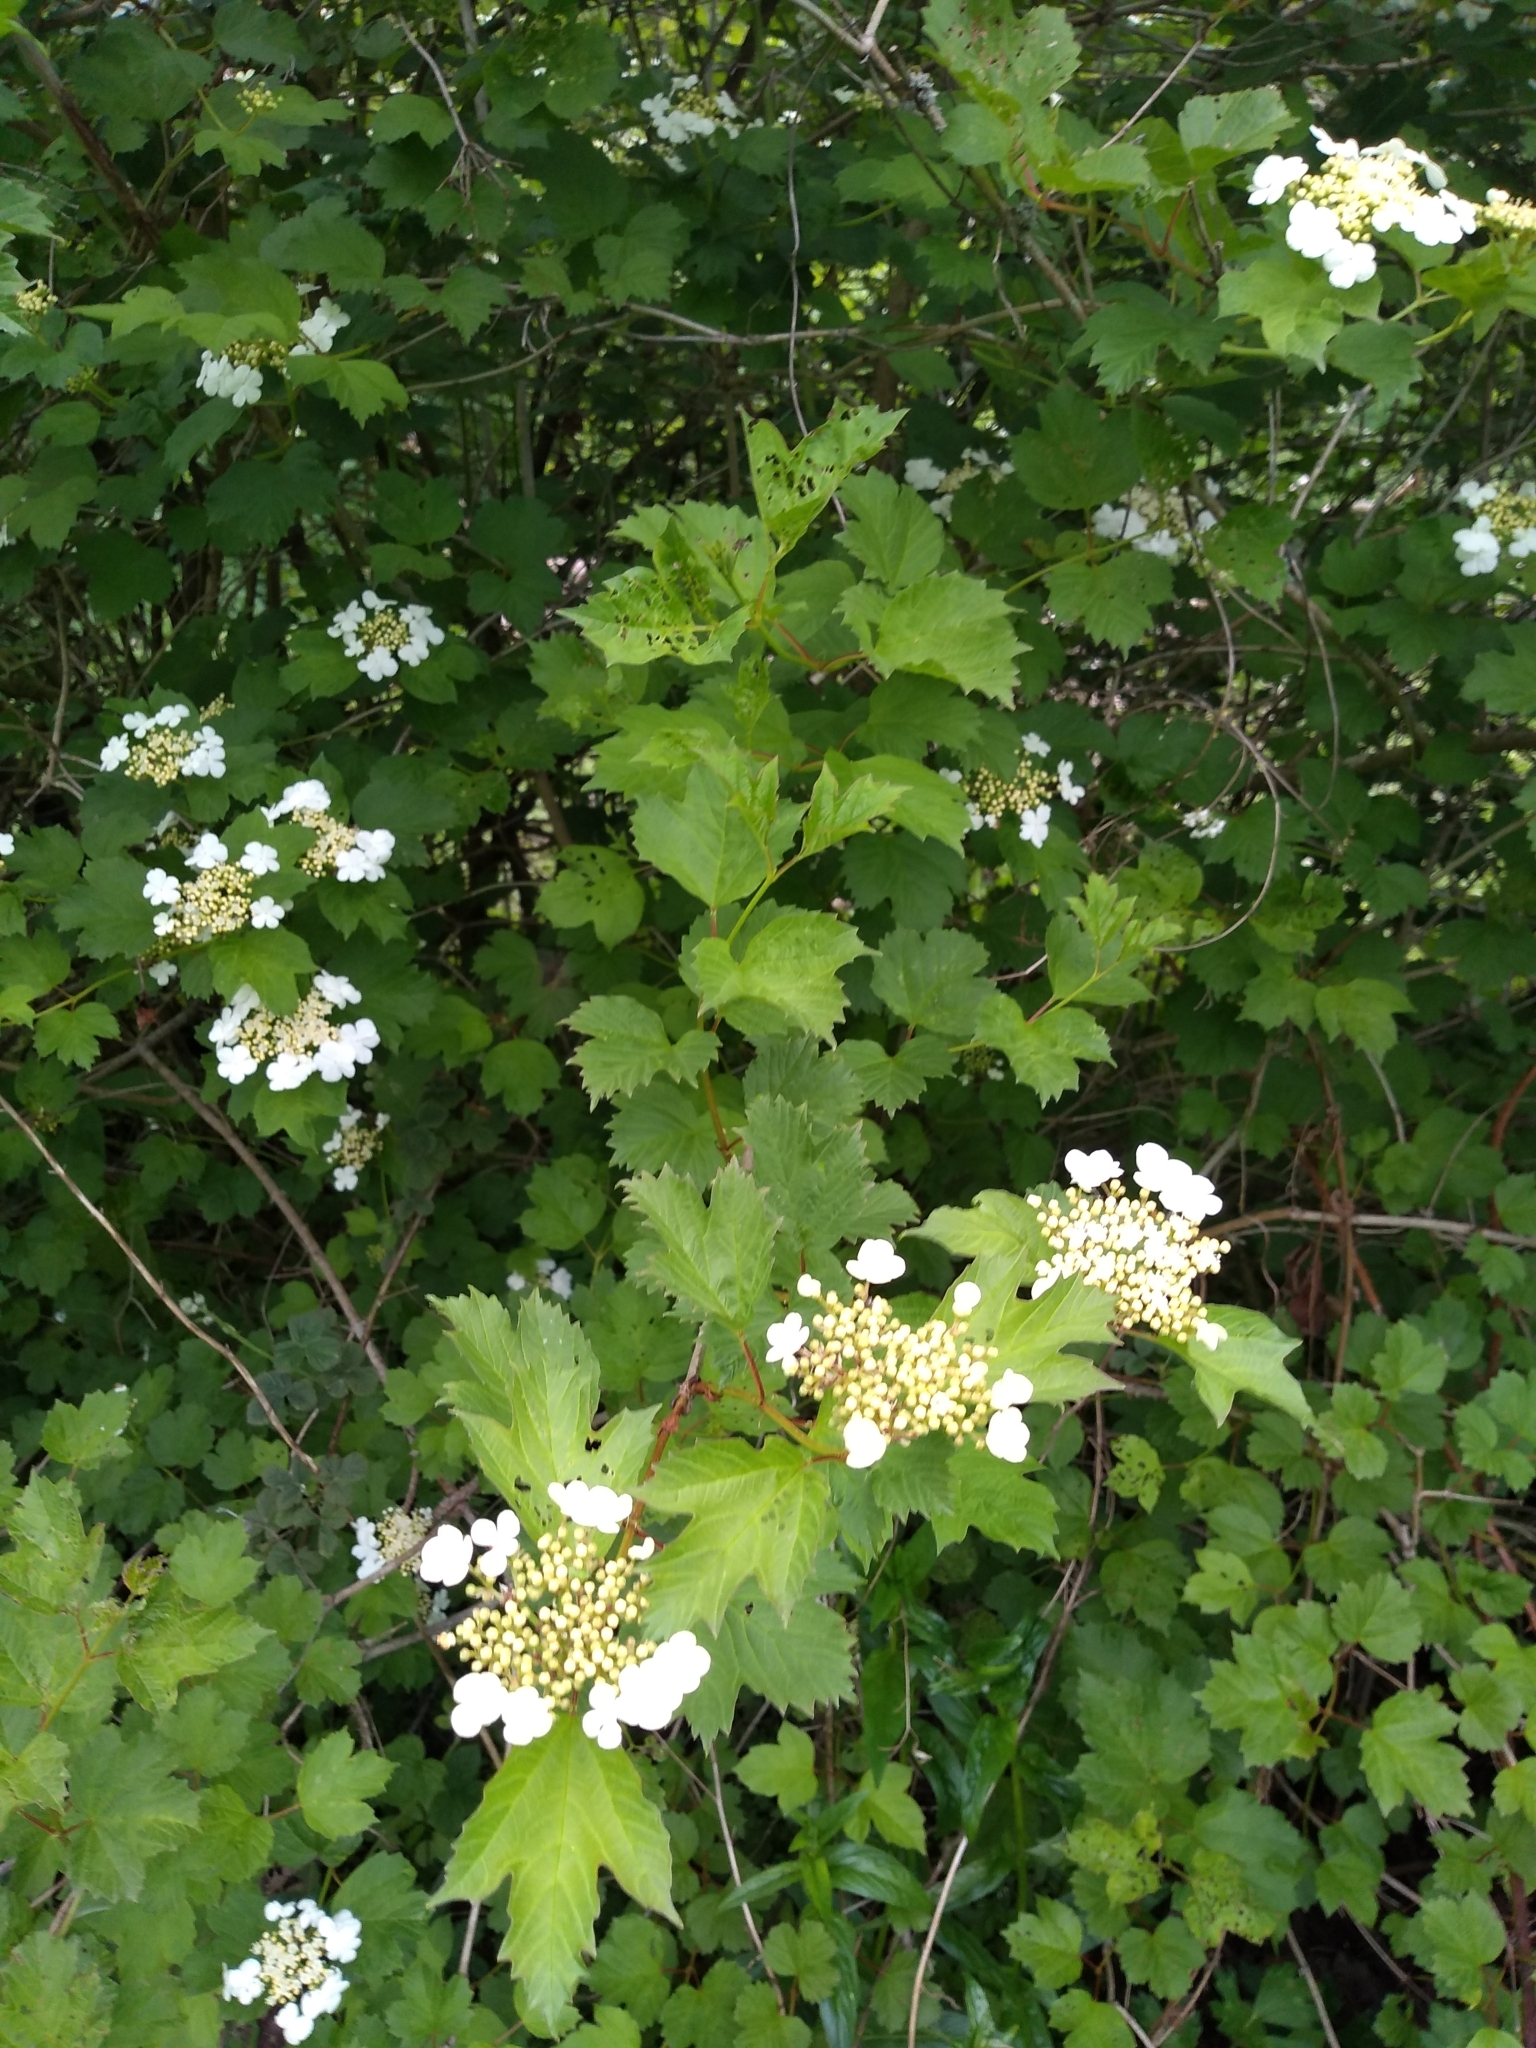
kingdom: Plantae
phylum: Tracheophyta
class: Magnoliopsida
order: Dipsacales
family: Viburnaceae
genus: Viburnum
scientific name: Viburnum opulus
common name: Guelder-rose
